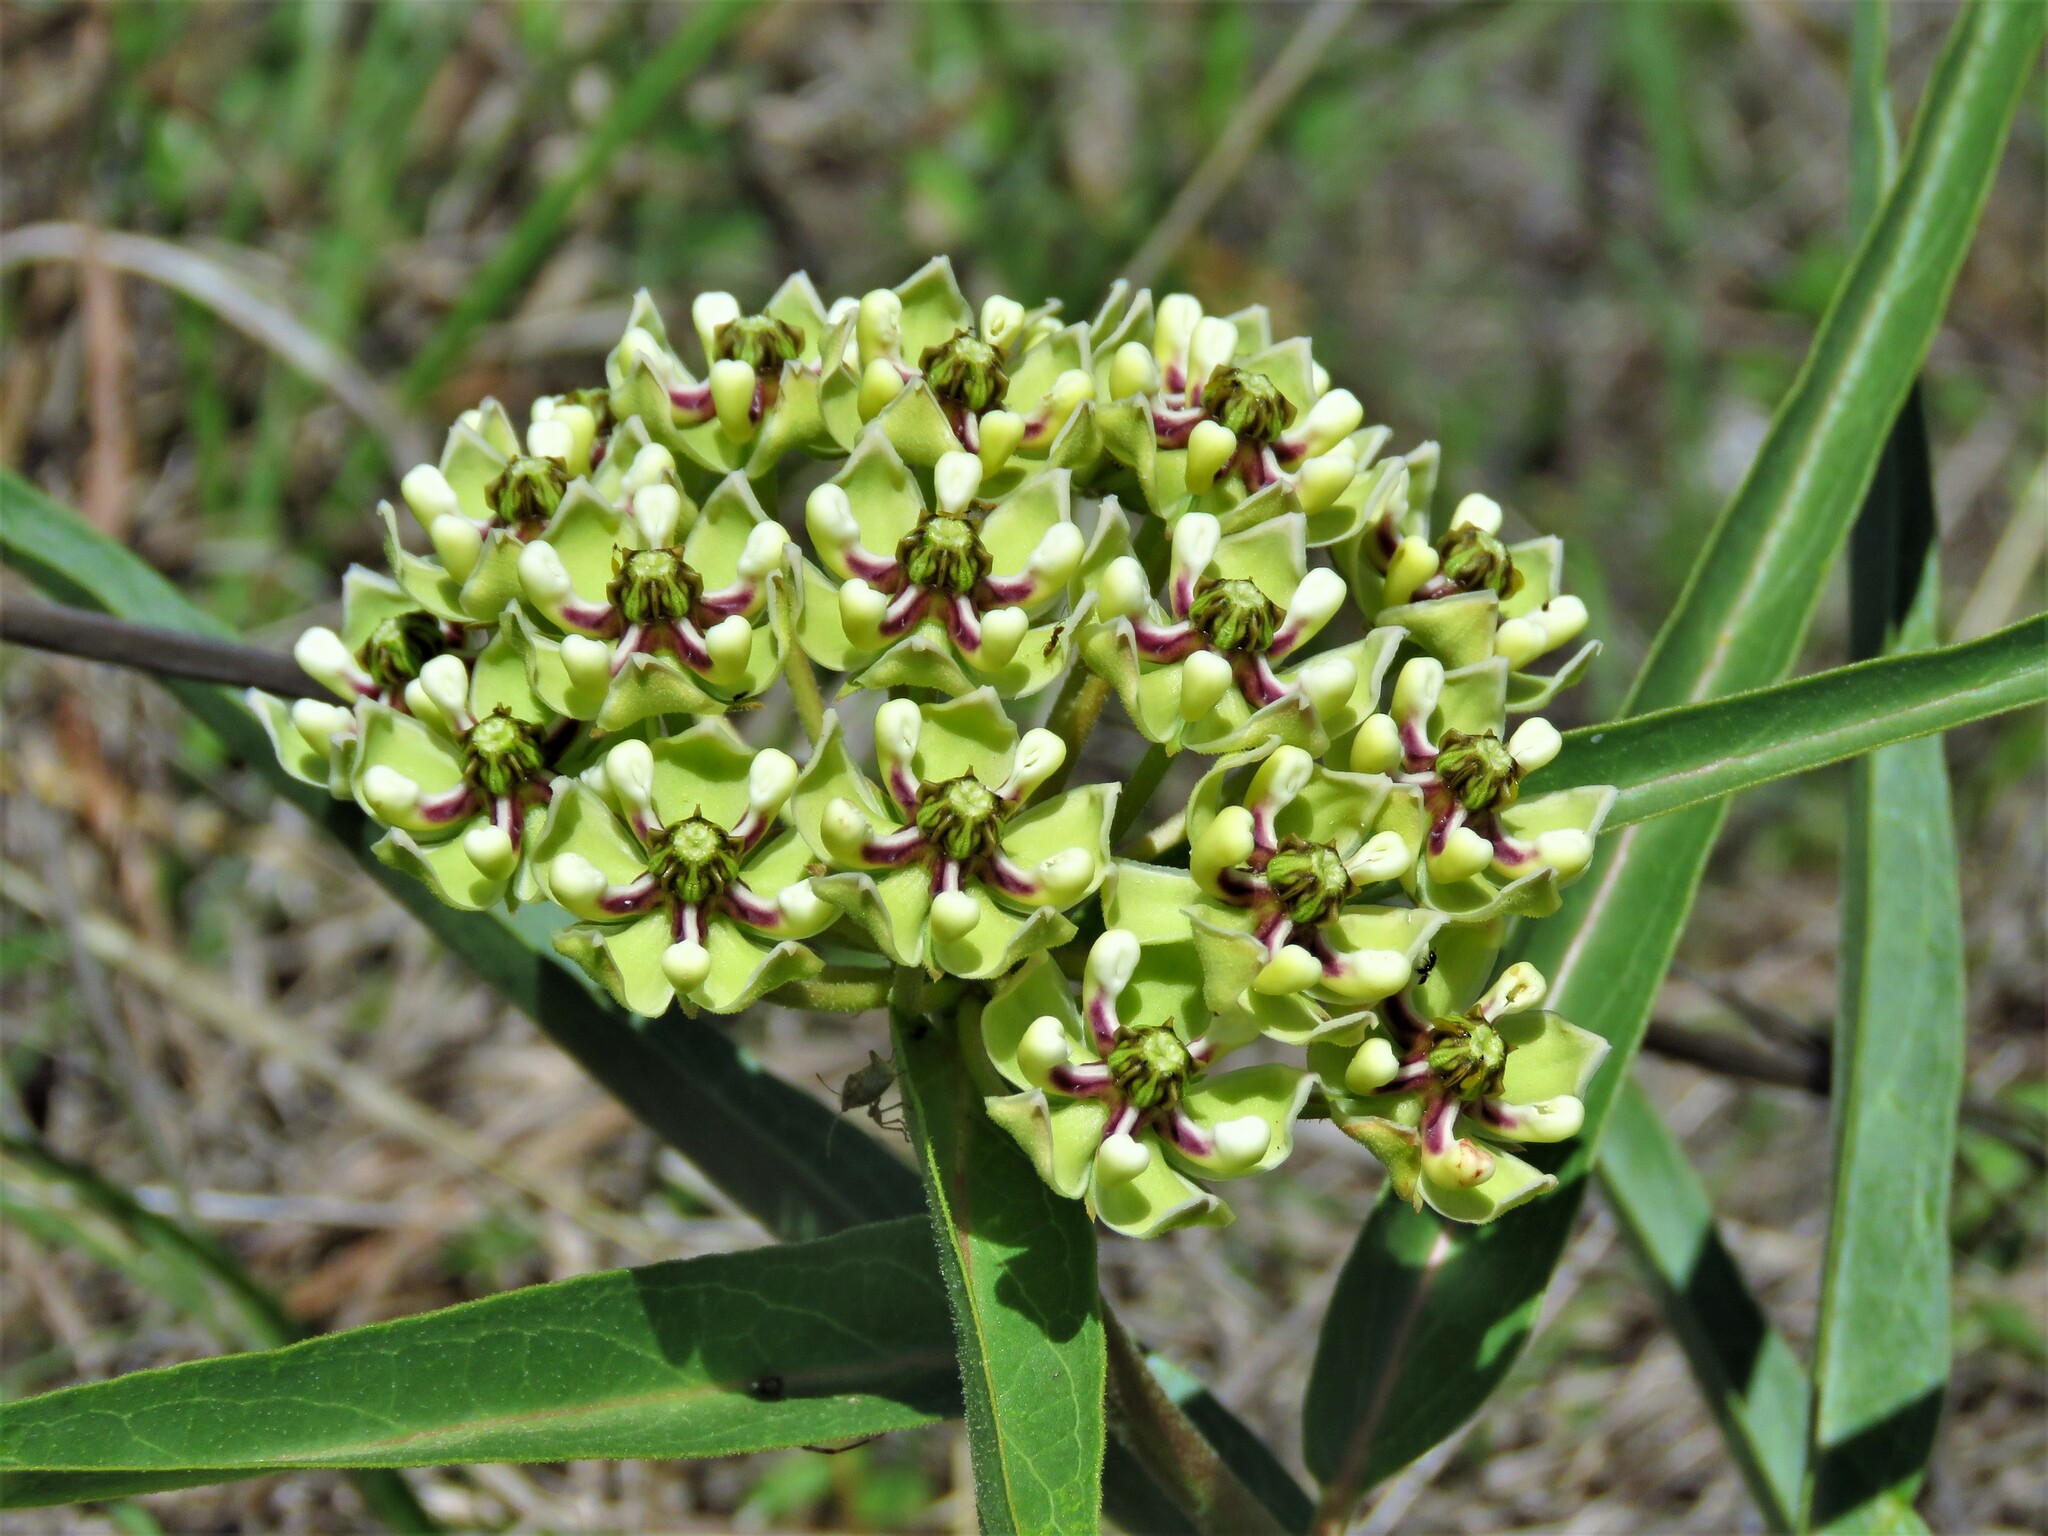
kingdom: Plantae
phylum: Tracheophyta
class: Magnoliopsida
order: Gentianales
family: Apocynaceae
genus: Asclepias
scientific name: Asclepias asperula
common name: Antelope horns
